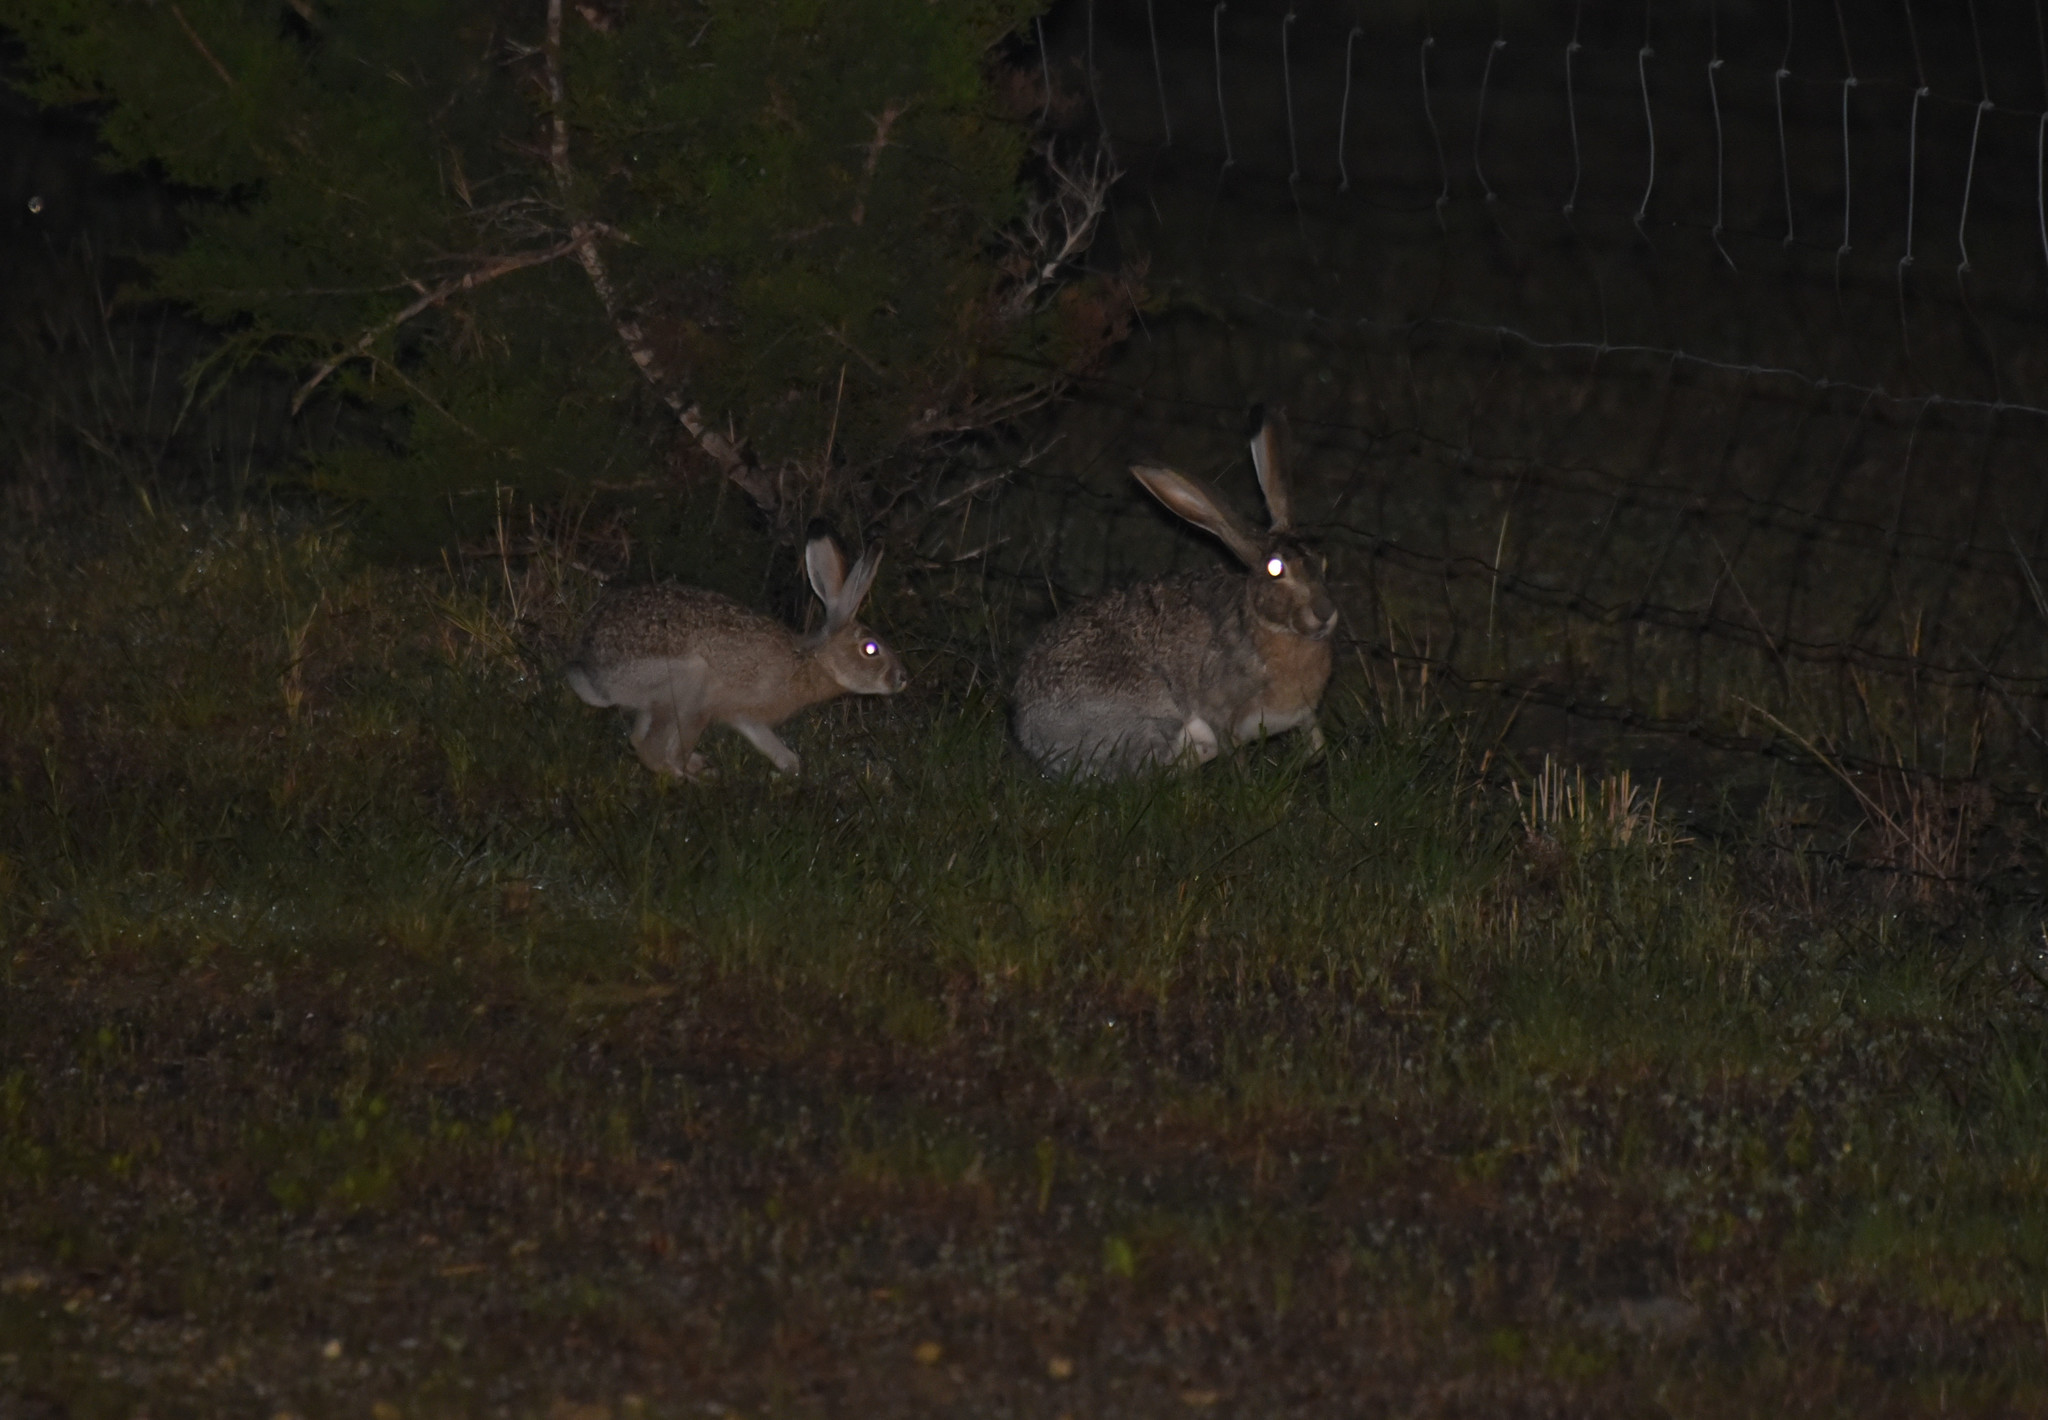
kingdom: Animalia
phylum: Chordata
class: Mammalia
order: Lagomorpha
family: Leporidae
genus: Lepus
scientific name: Lepus californicus
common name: Black-tailed jackrabbit
